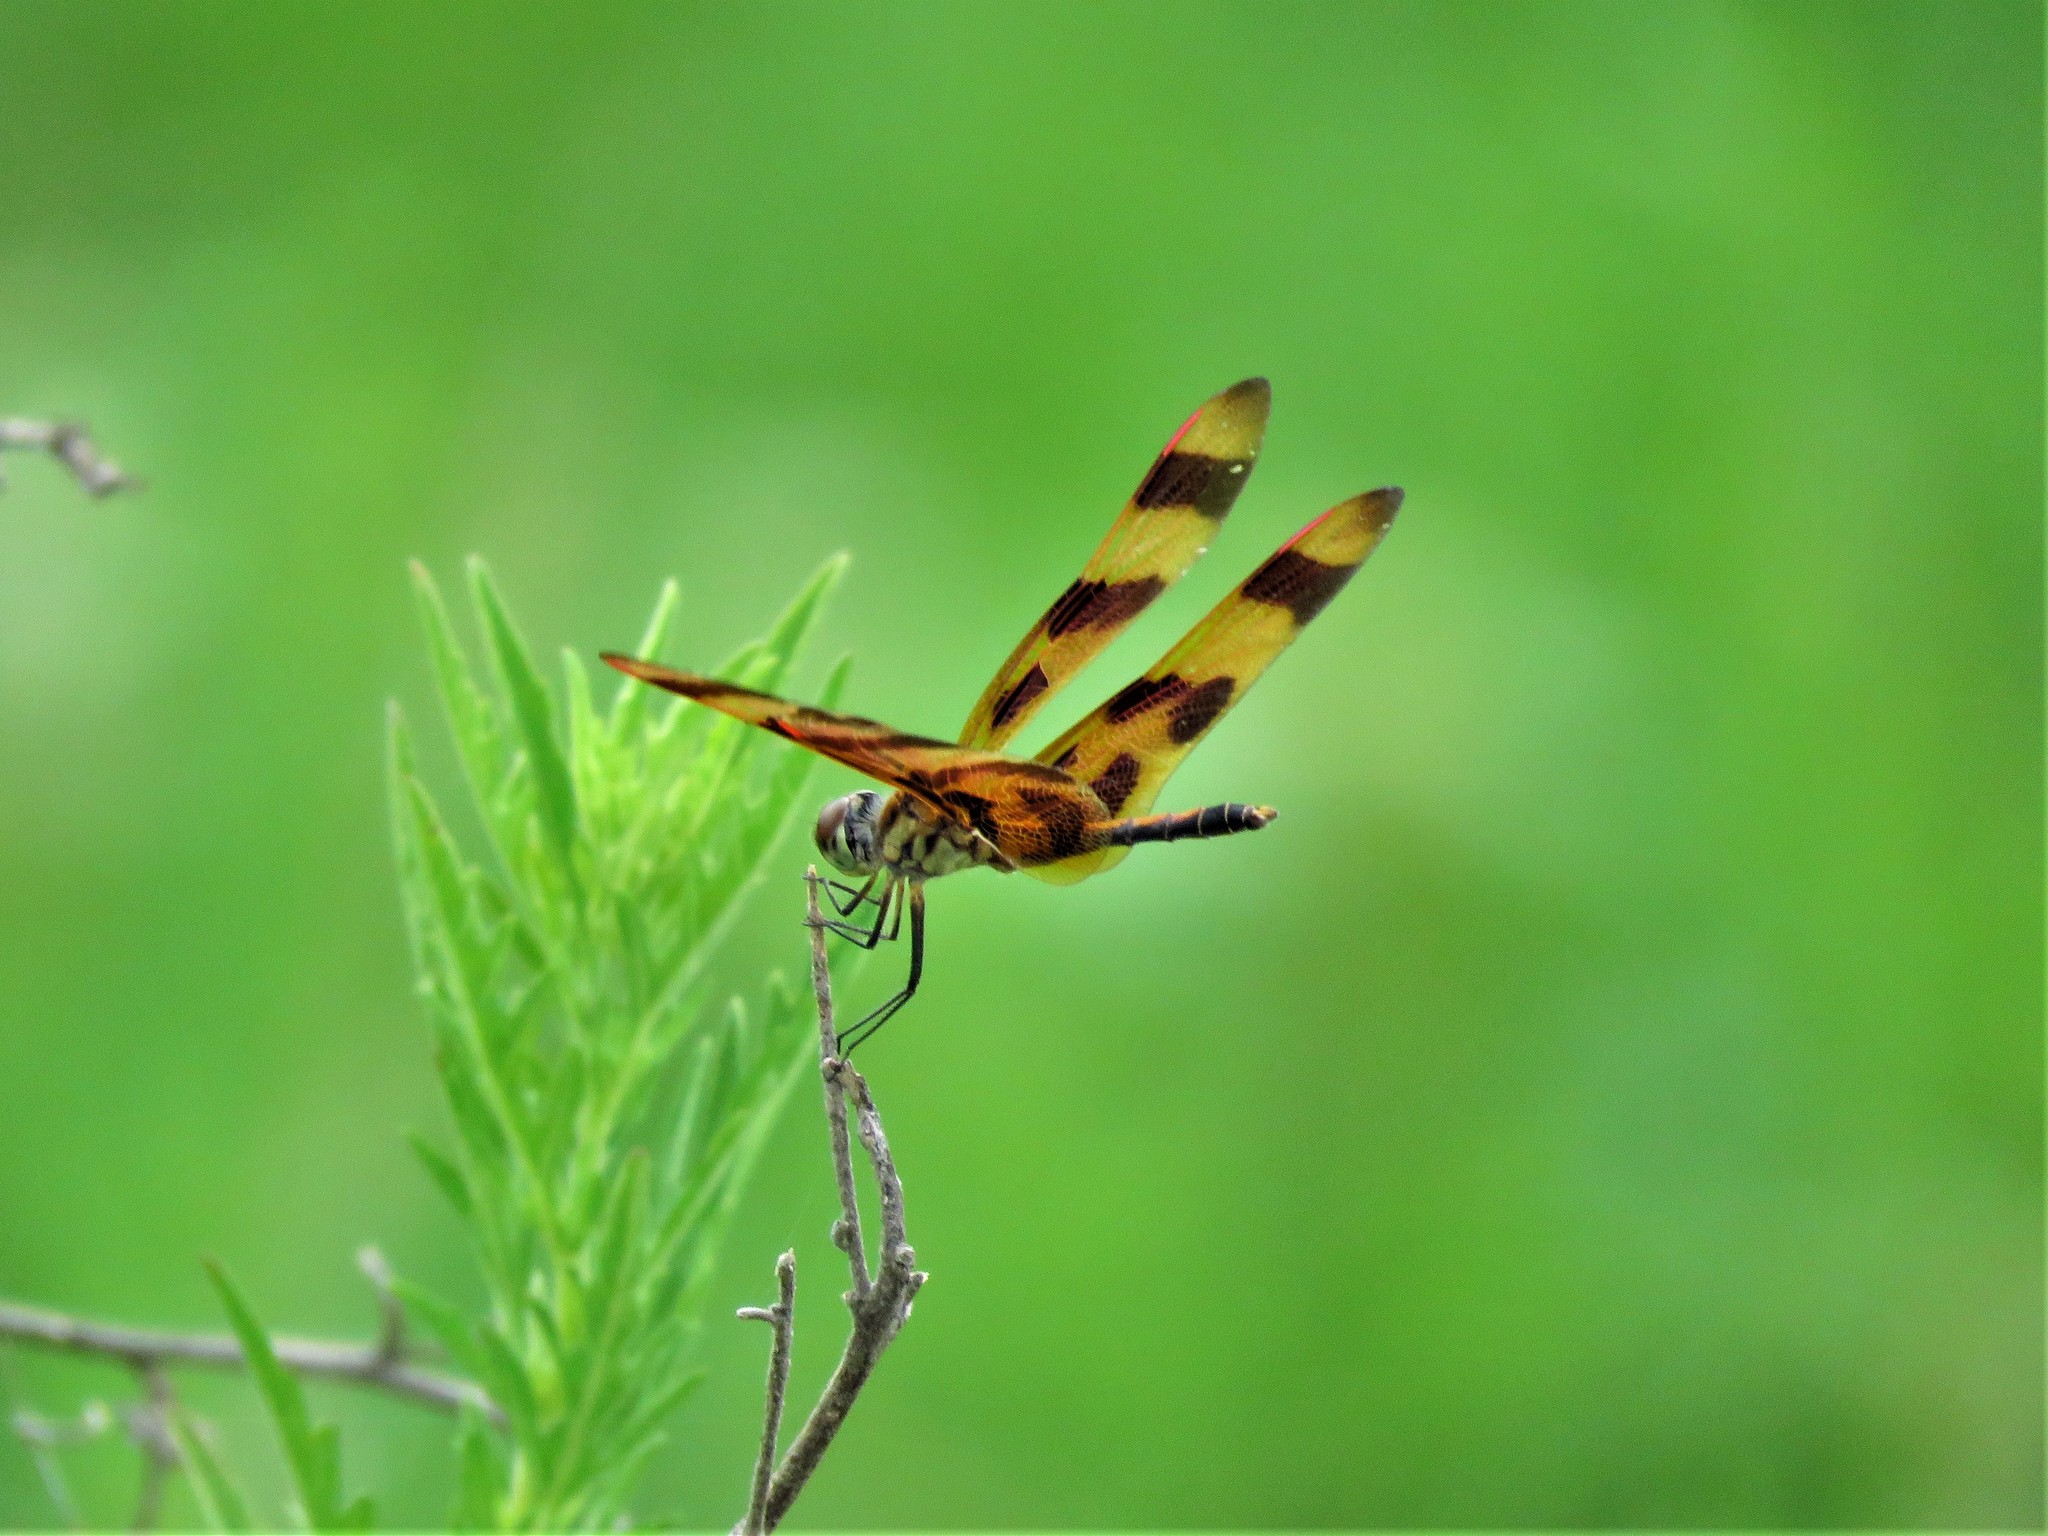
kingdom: Animalia
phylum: Arthropoda
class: Insecta
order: Odonata
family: Libellulidae
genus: Celithemis
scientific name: Celithemis eponina
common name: Halloween pennant
